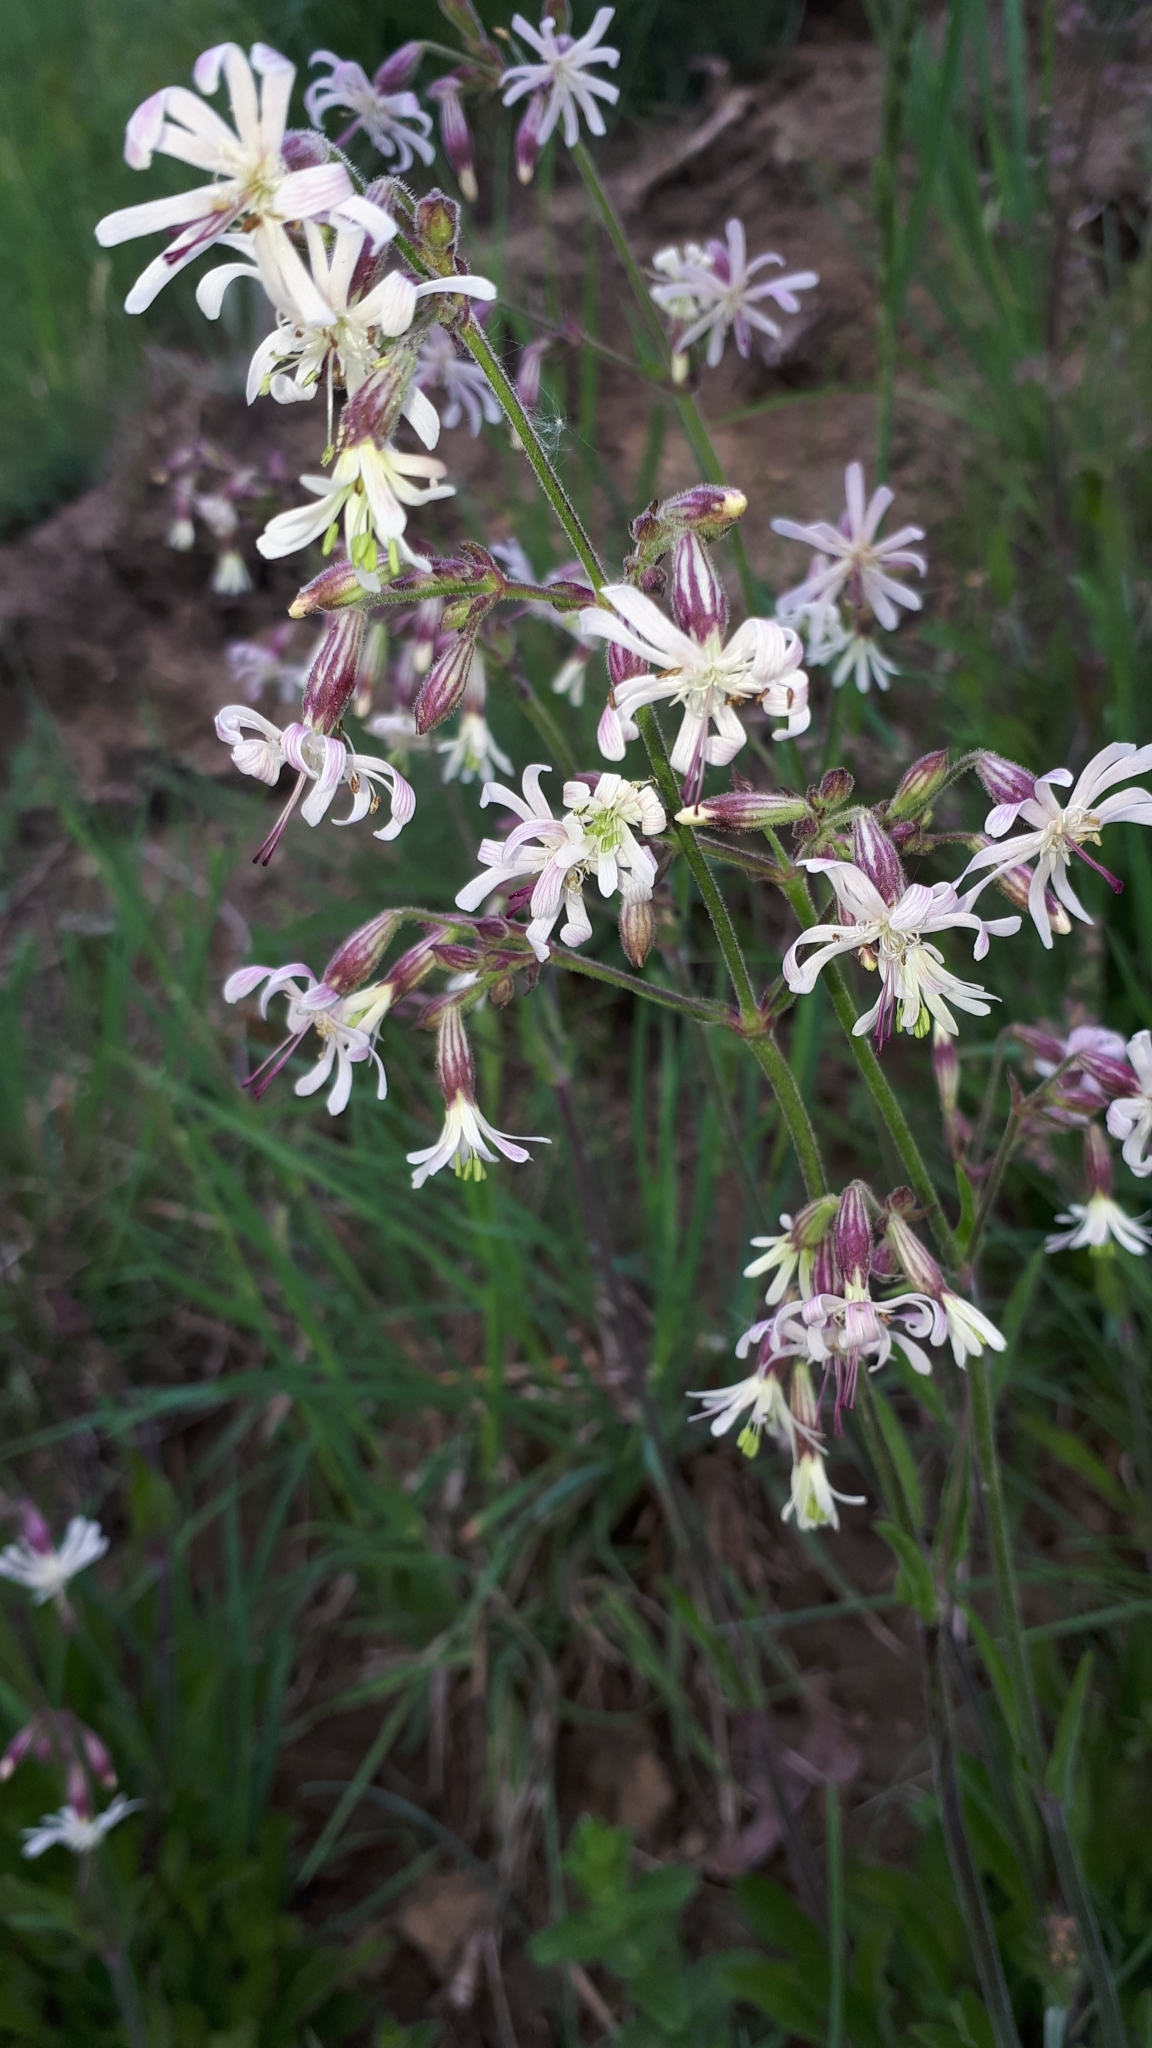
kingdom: Plantae
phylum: Tracheophyta
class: Magnoliopsida
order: Caryophyllales
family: Caryophyllaceae
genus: Silene
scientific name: Silene nutans
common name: Nottingham catchfly
